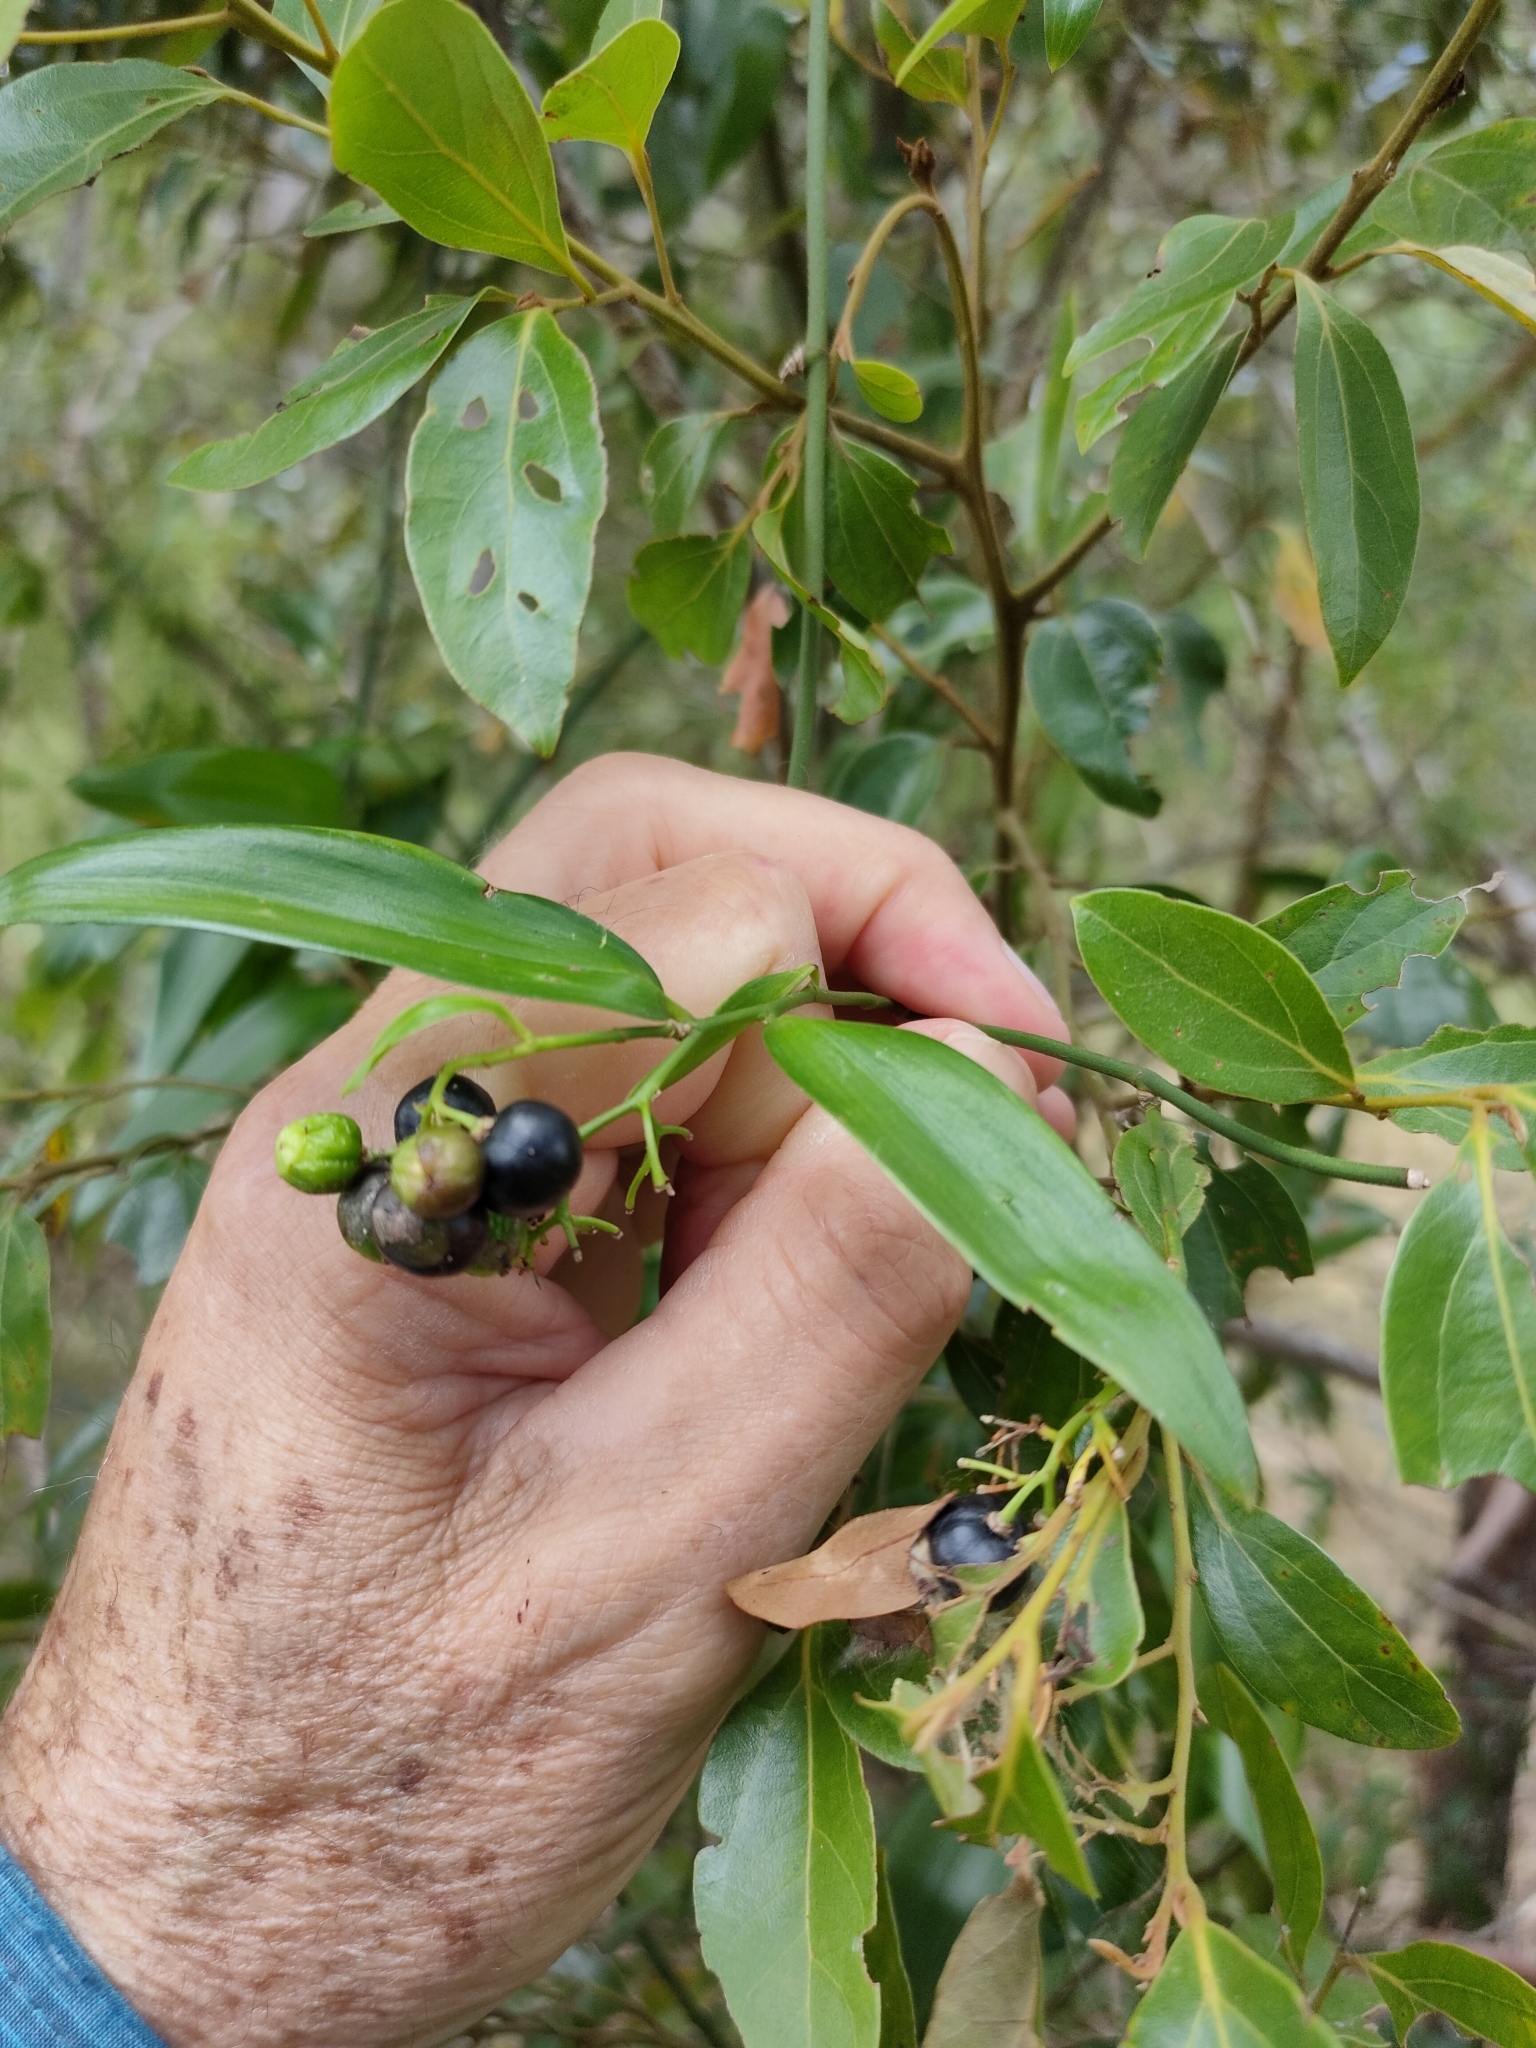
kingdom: Plantae
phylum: Tracheophyta
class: Liliopsida
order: Asparagales
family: Asphodelaceae
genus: Geitonoplesium
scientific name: Geitonoplesium cymosum
